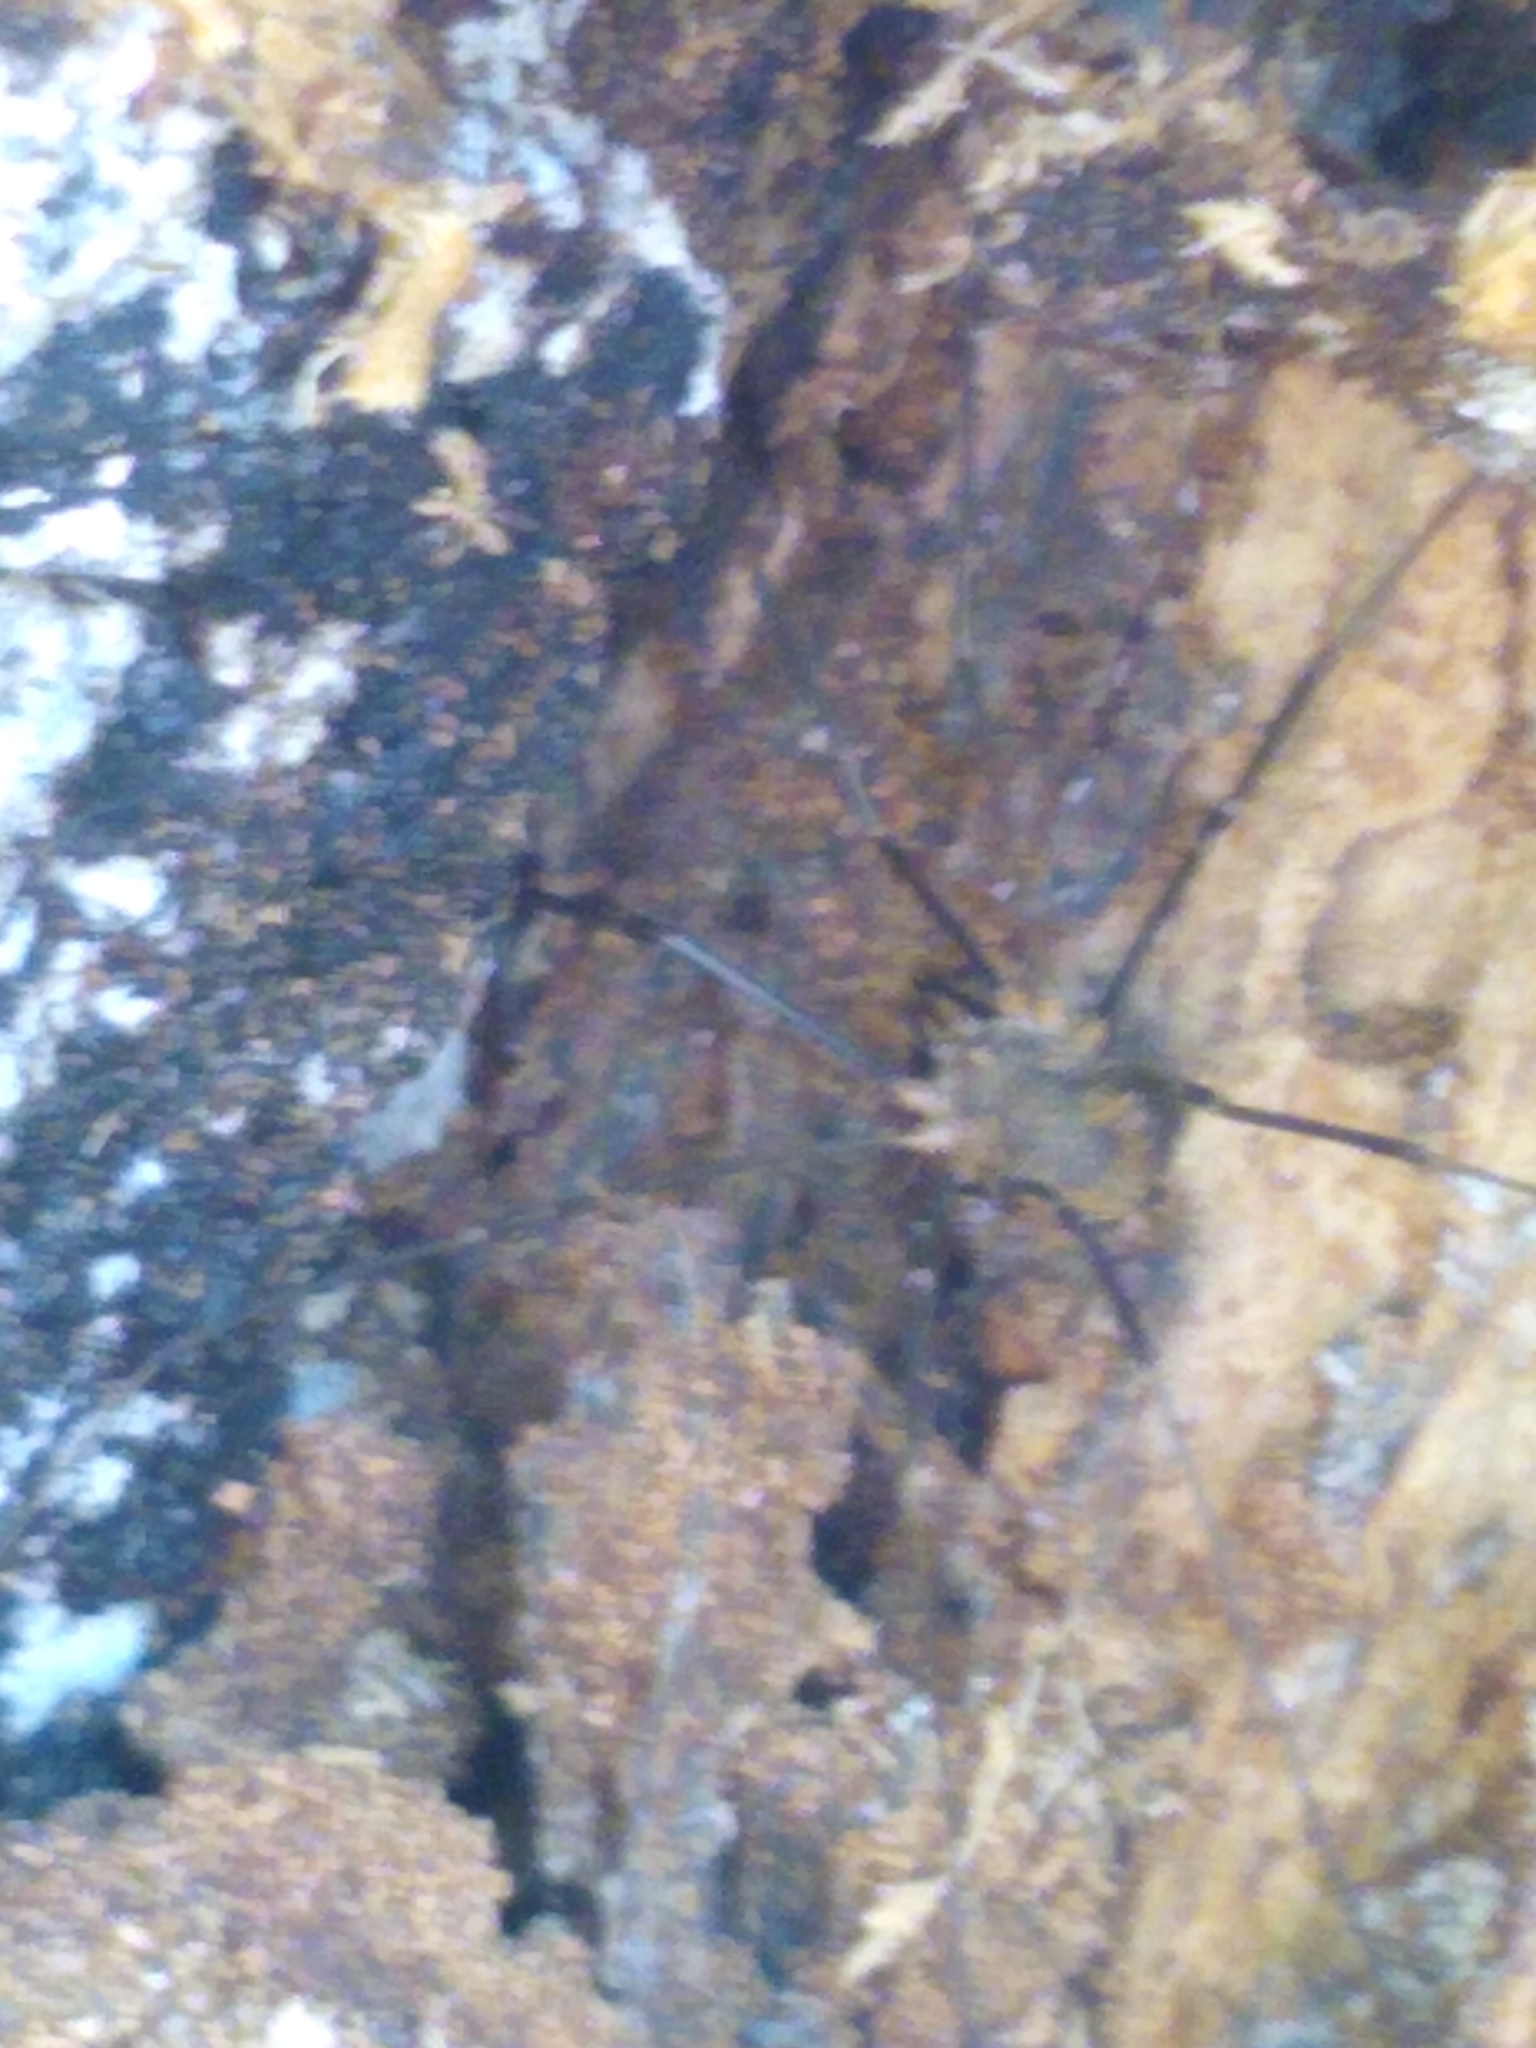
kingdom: Animalia
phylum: Arthropoda
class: Arachnida
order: Opiliones
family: Phalangiidae
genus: Phalangium
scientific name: Phalangium opilio
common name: Daddy longleg
